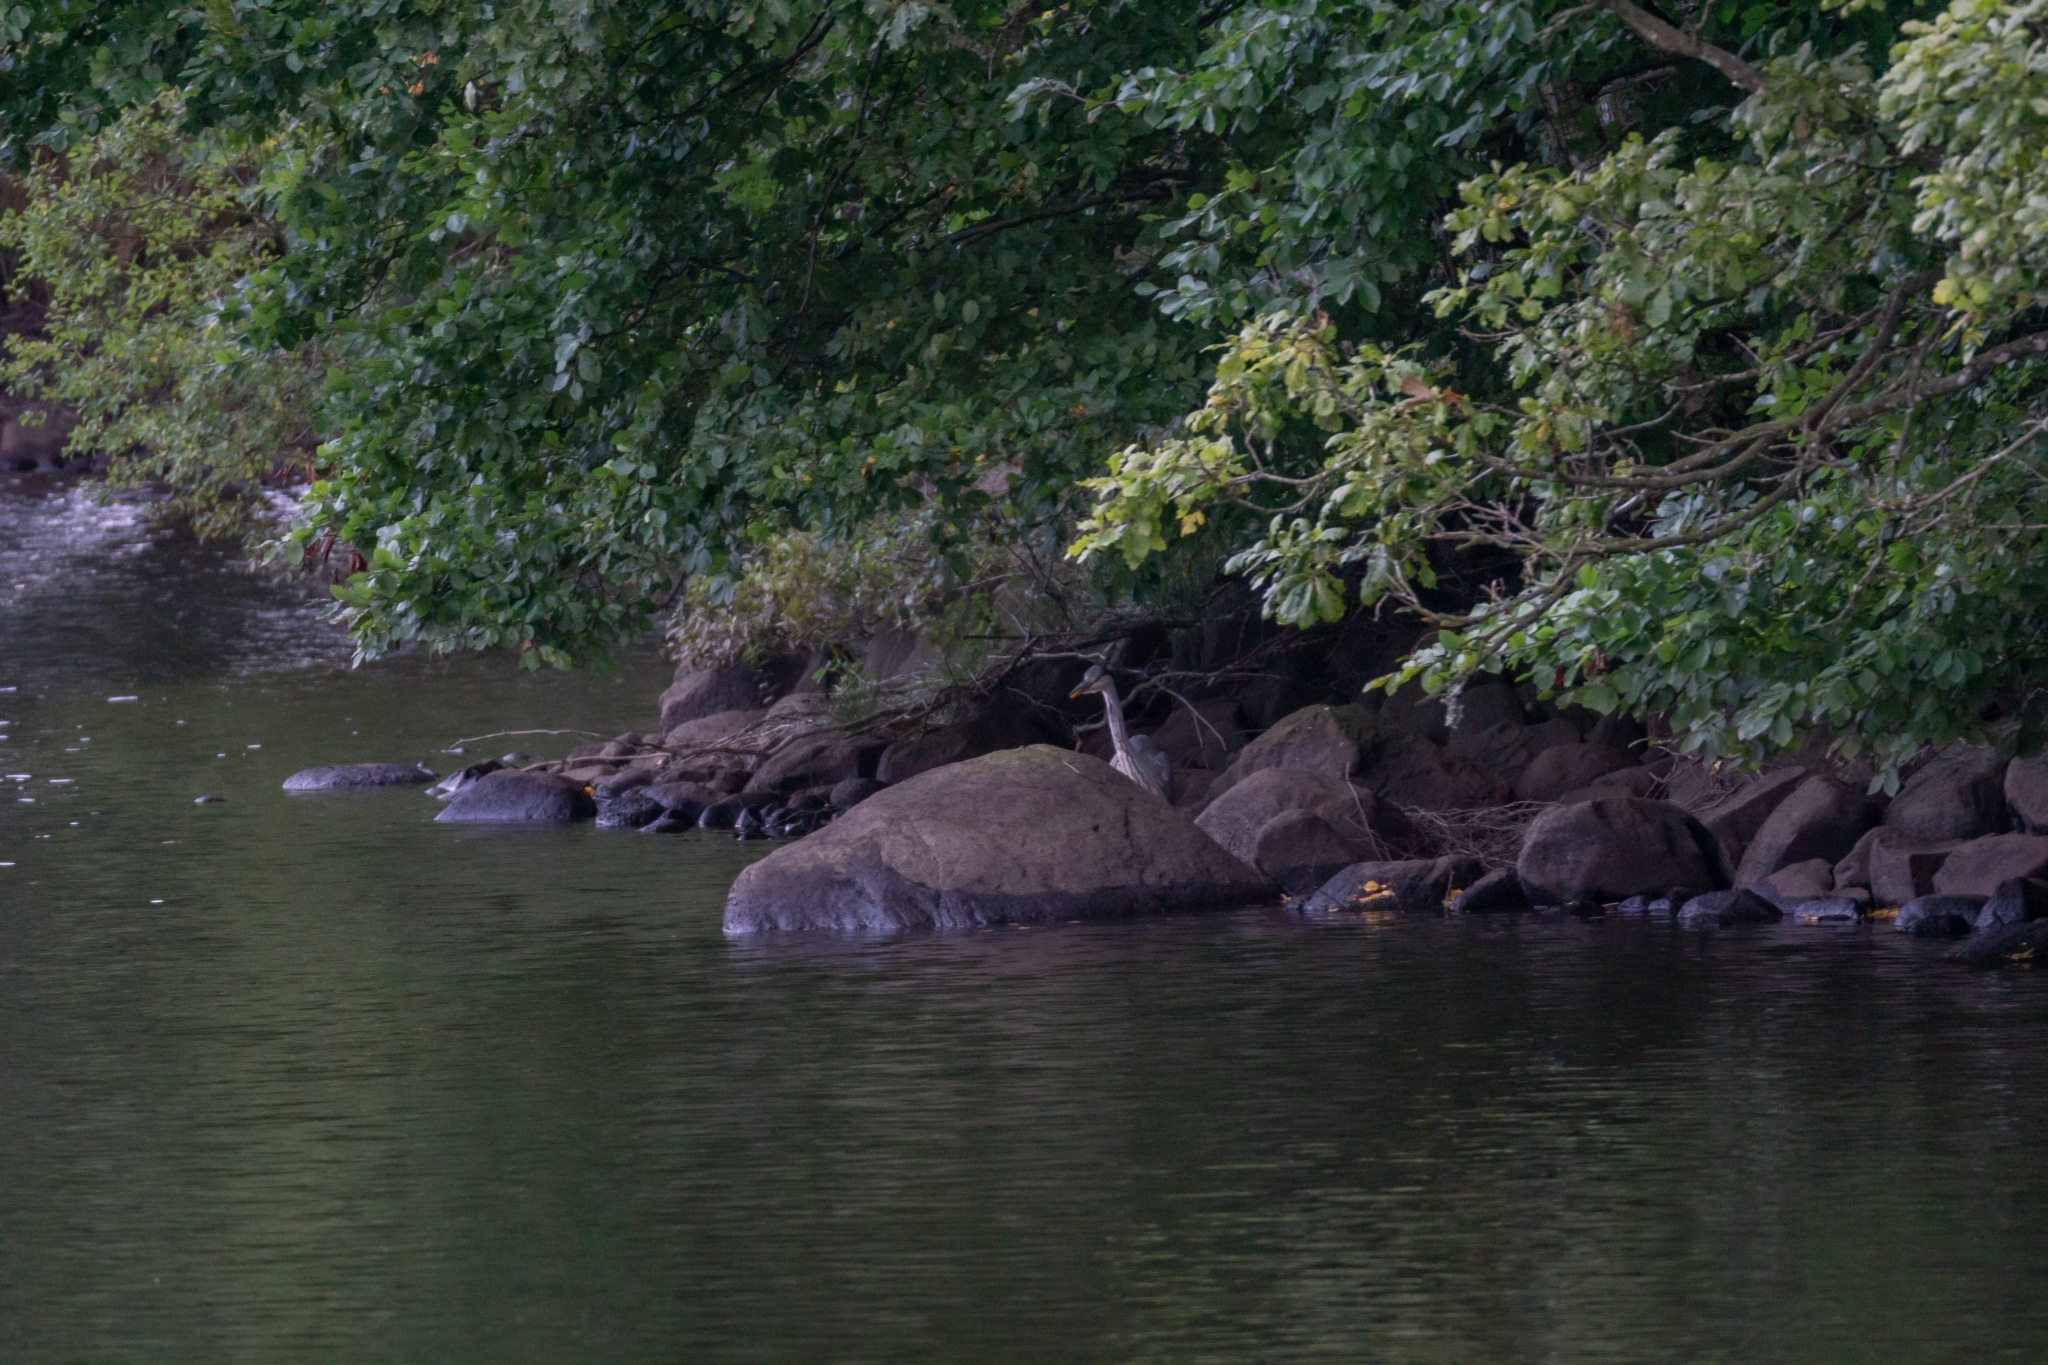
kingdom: Animalia
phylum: Chordata
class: Aves
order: Pelecaniformes
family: Ardeidae
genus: Ardea
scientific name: Ardea cinerea
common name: Grey heron
